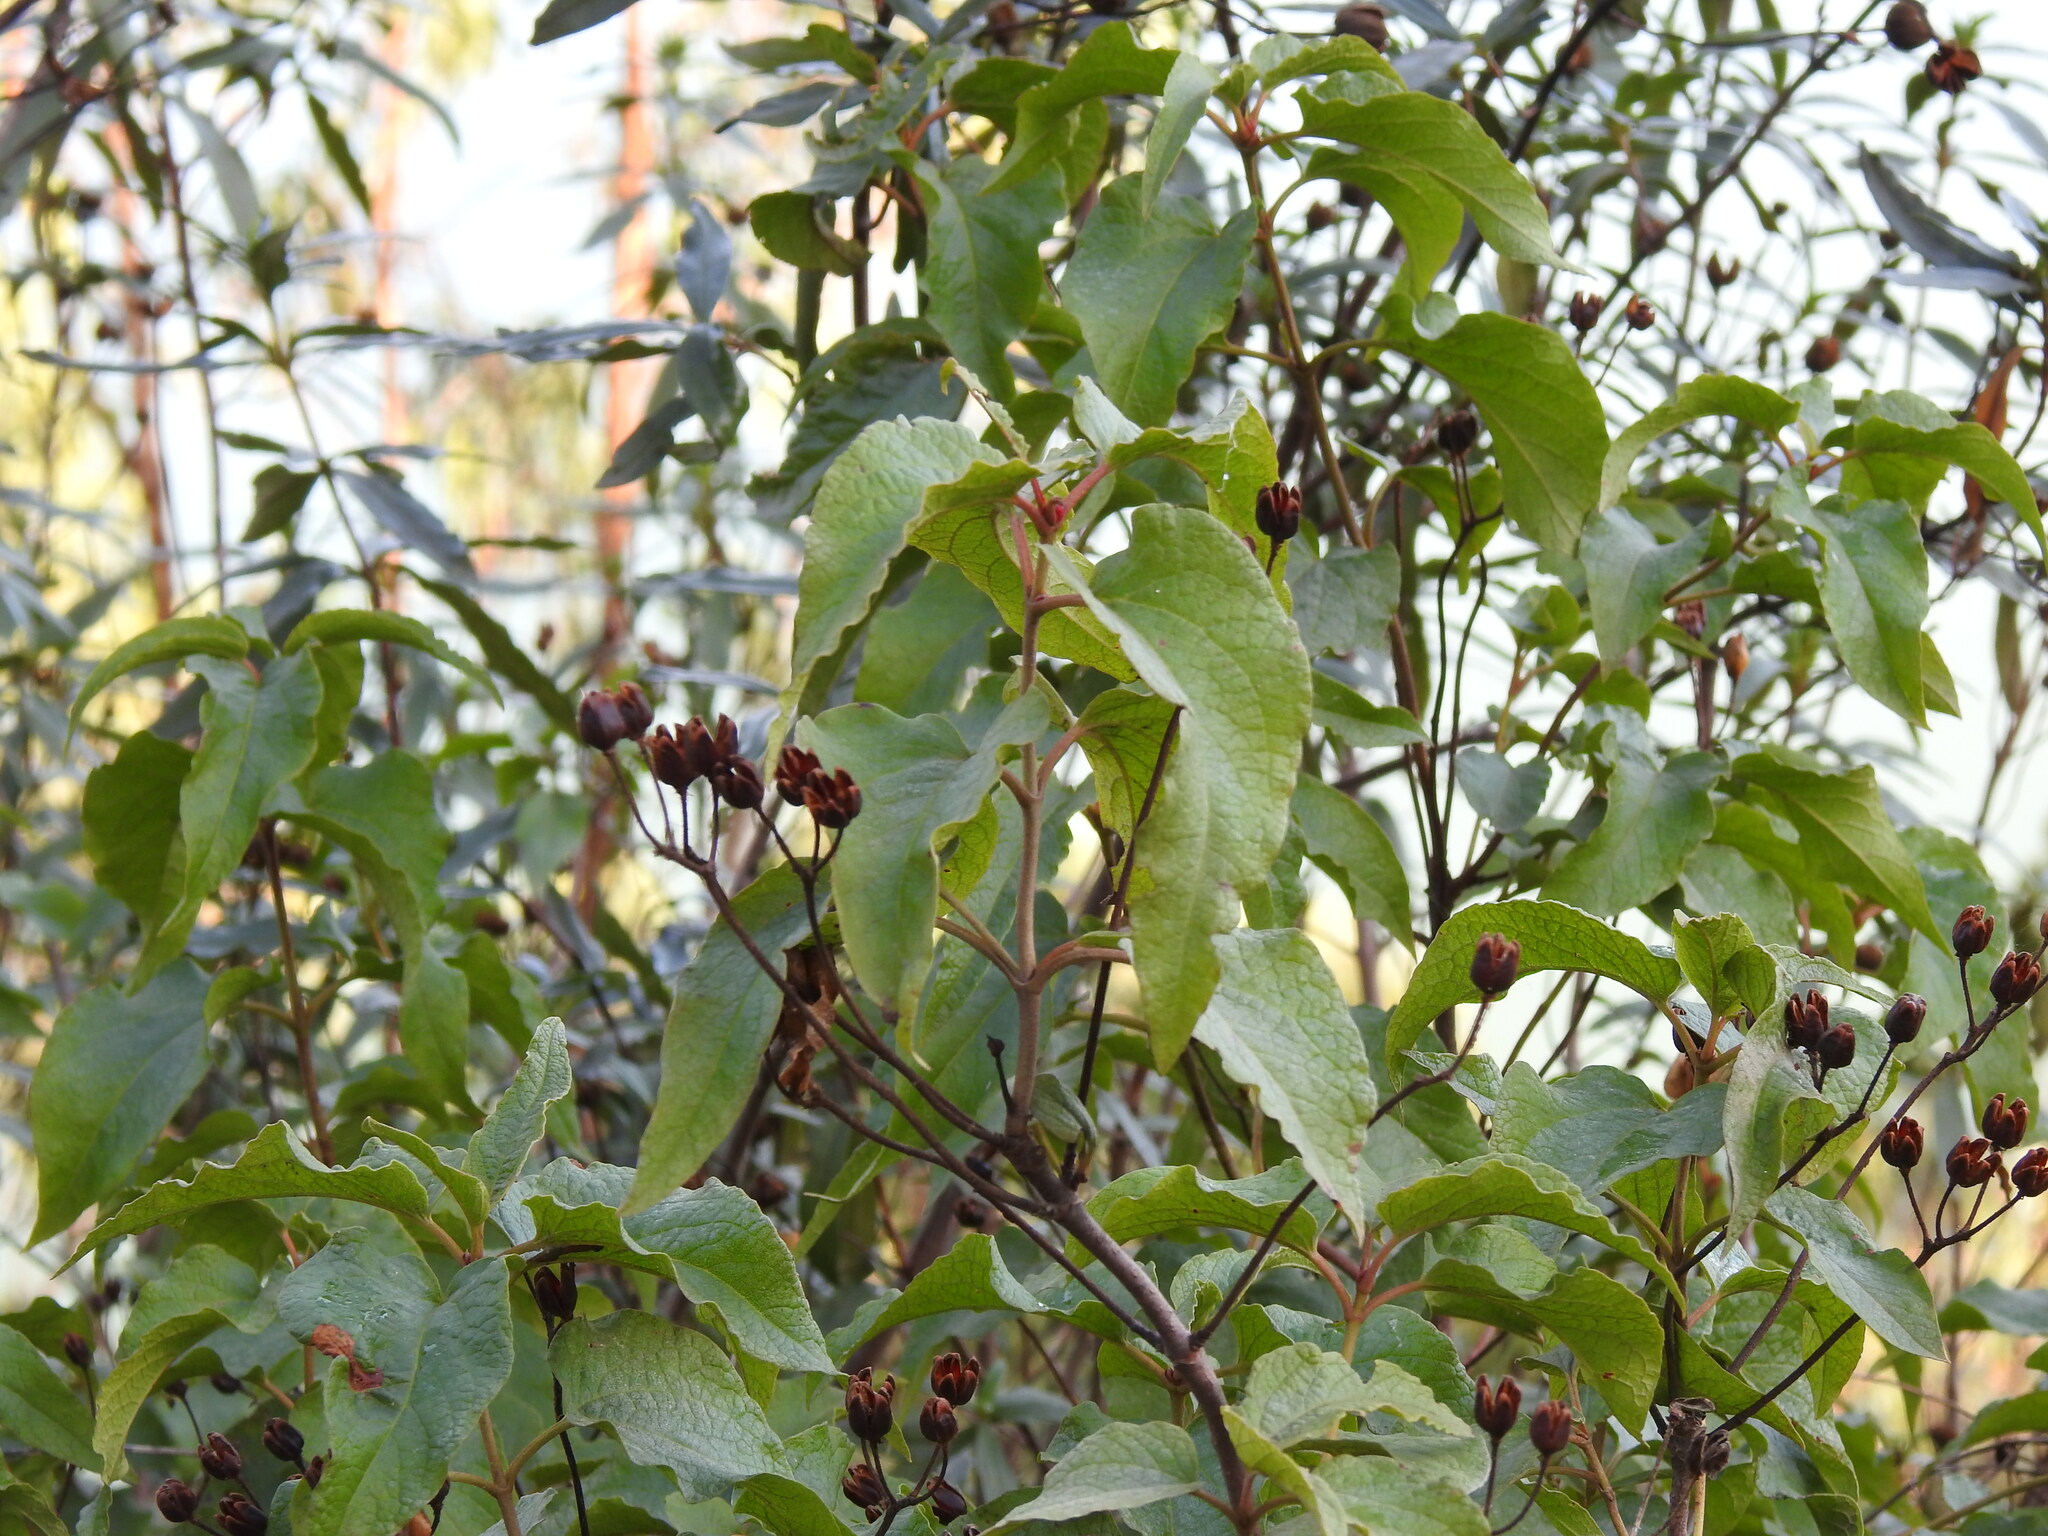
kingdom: Plantae
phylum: Tracheophyta
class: Magnoliopsida
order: Malvales
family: Cistaceae
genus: Cistus
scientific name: Cistus populifolius
